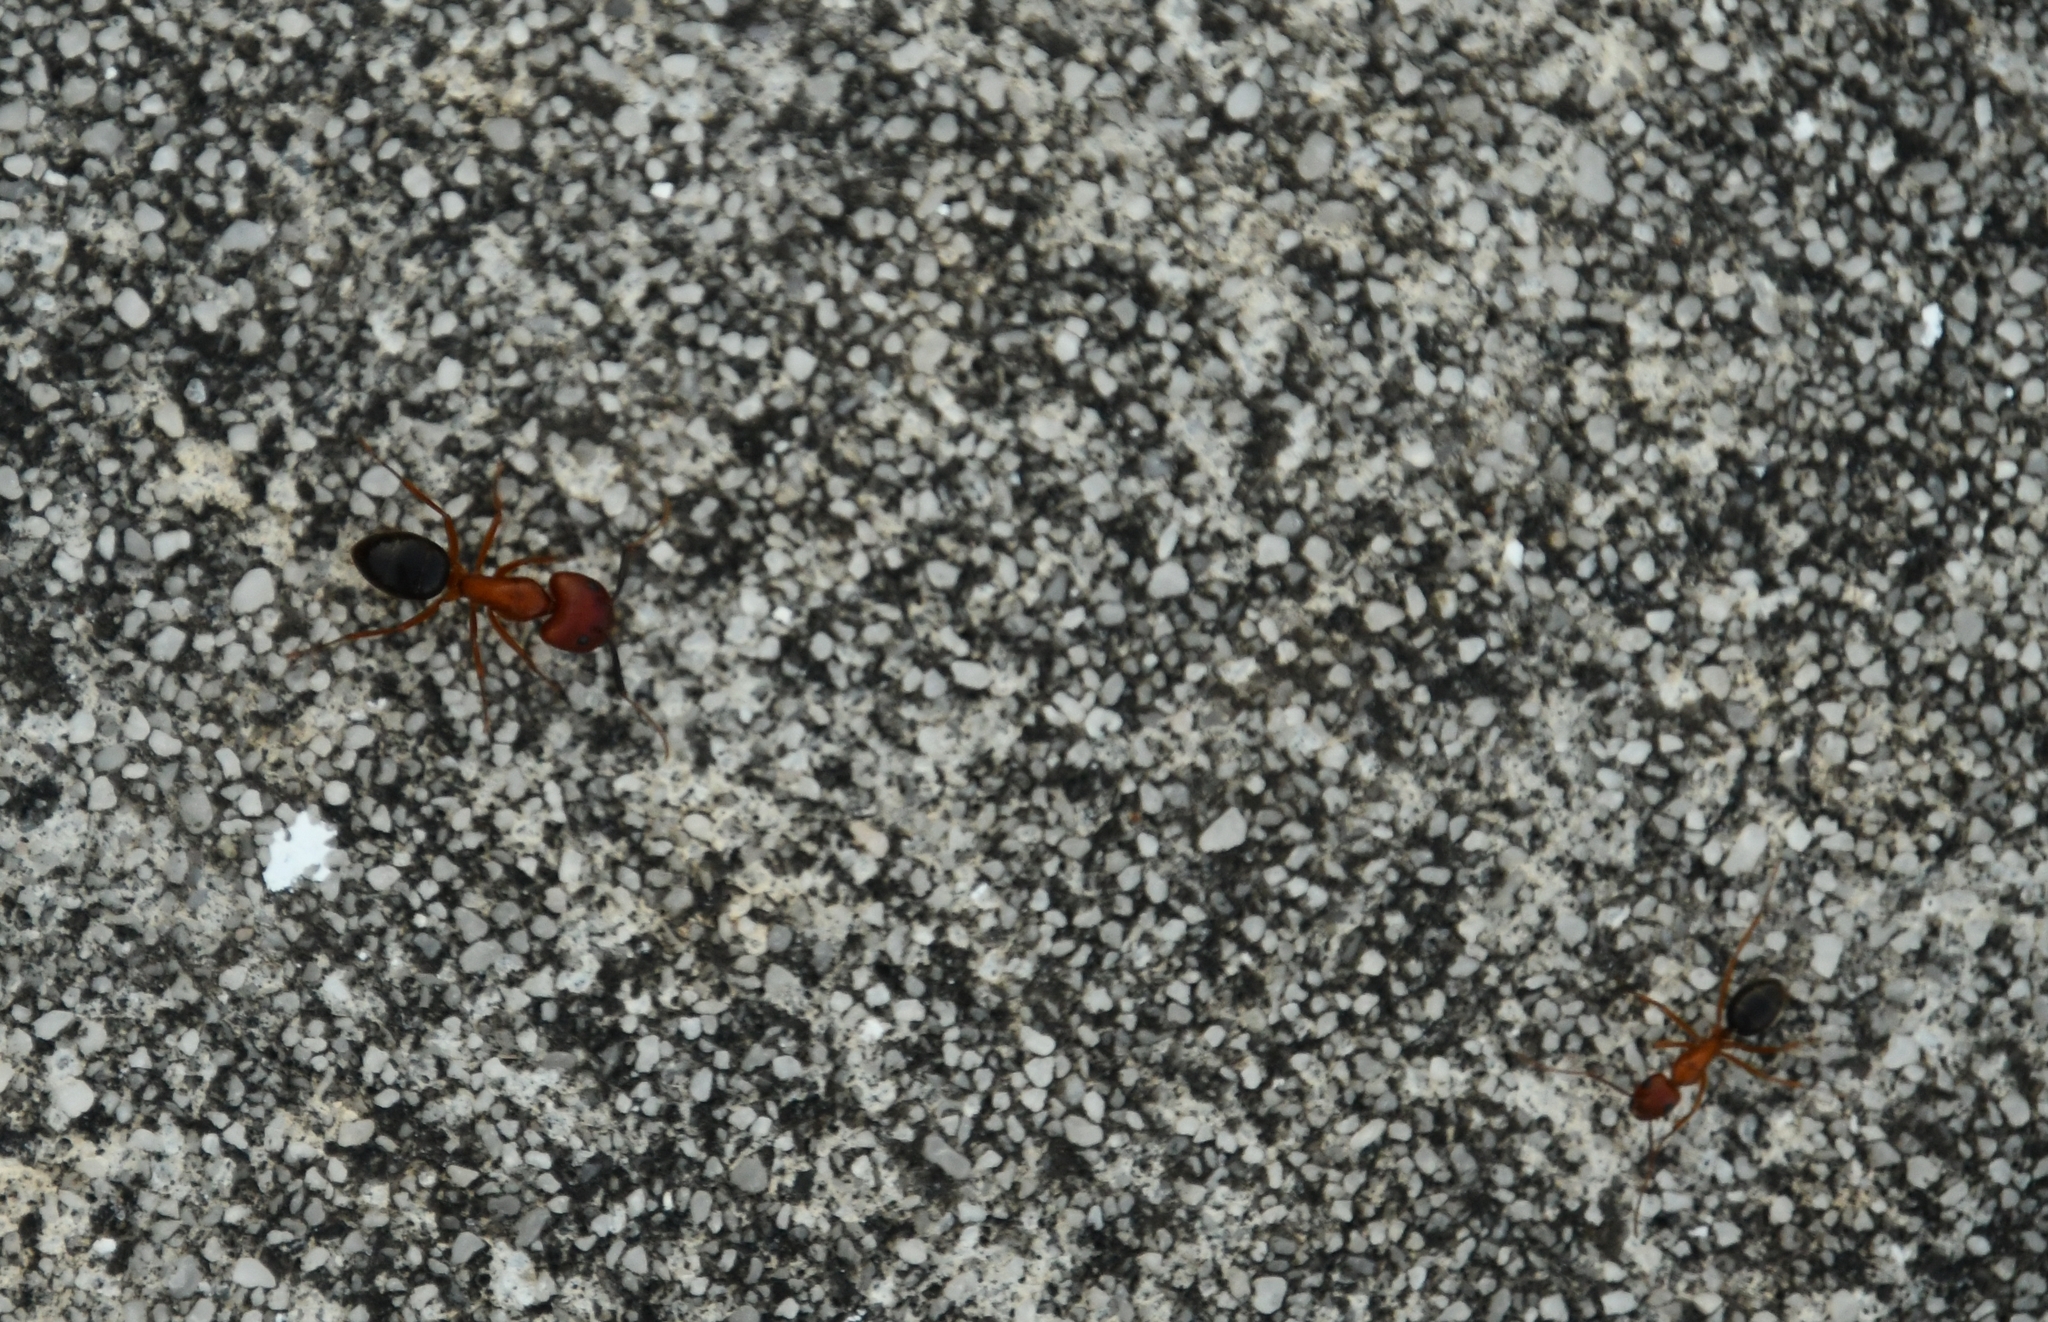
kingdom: Animalia
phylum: Arthropoda
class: Insecta
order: Hymenoptera
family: Formicidae
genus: Camponotus
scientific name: Camponotus floridanus
